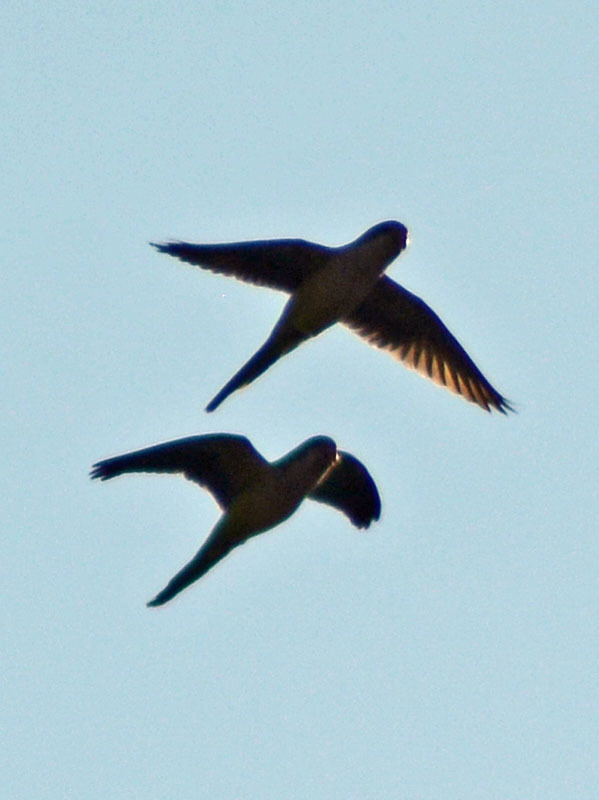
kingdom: Animalia
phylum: Chordata
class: Aves
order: Psittaciformes
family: Psittacidae
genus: Myiopsitta
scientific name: Myiopsitta monachus
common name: Monk parakeet
